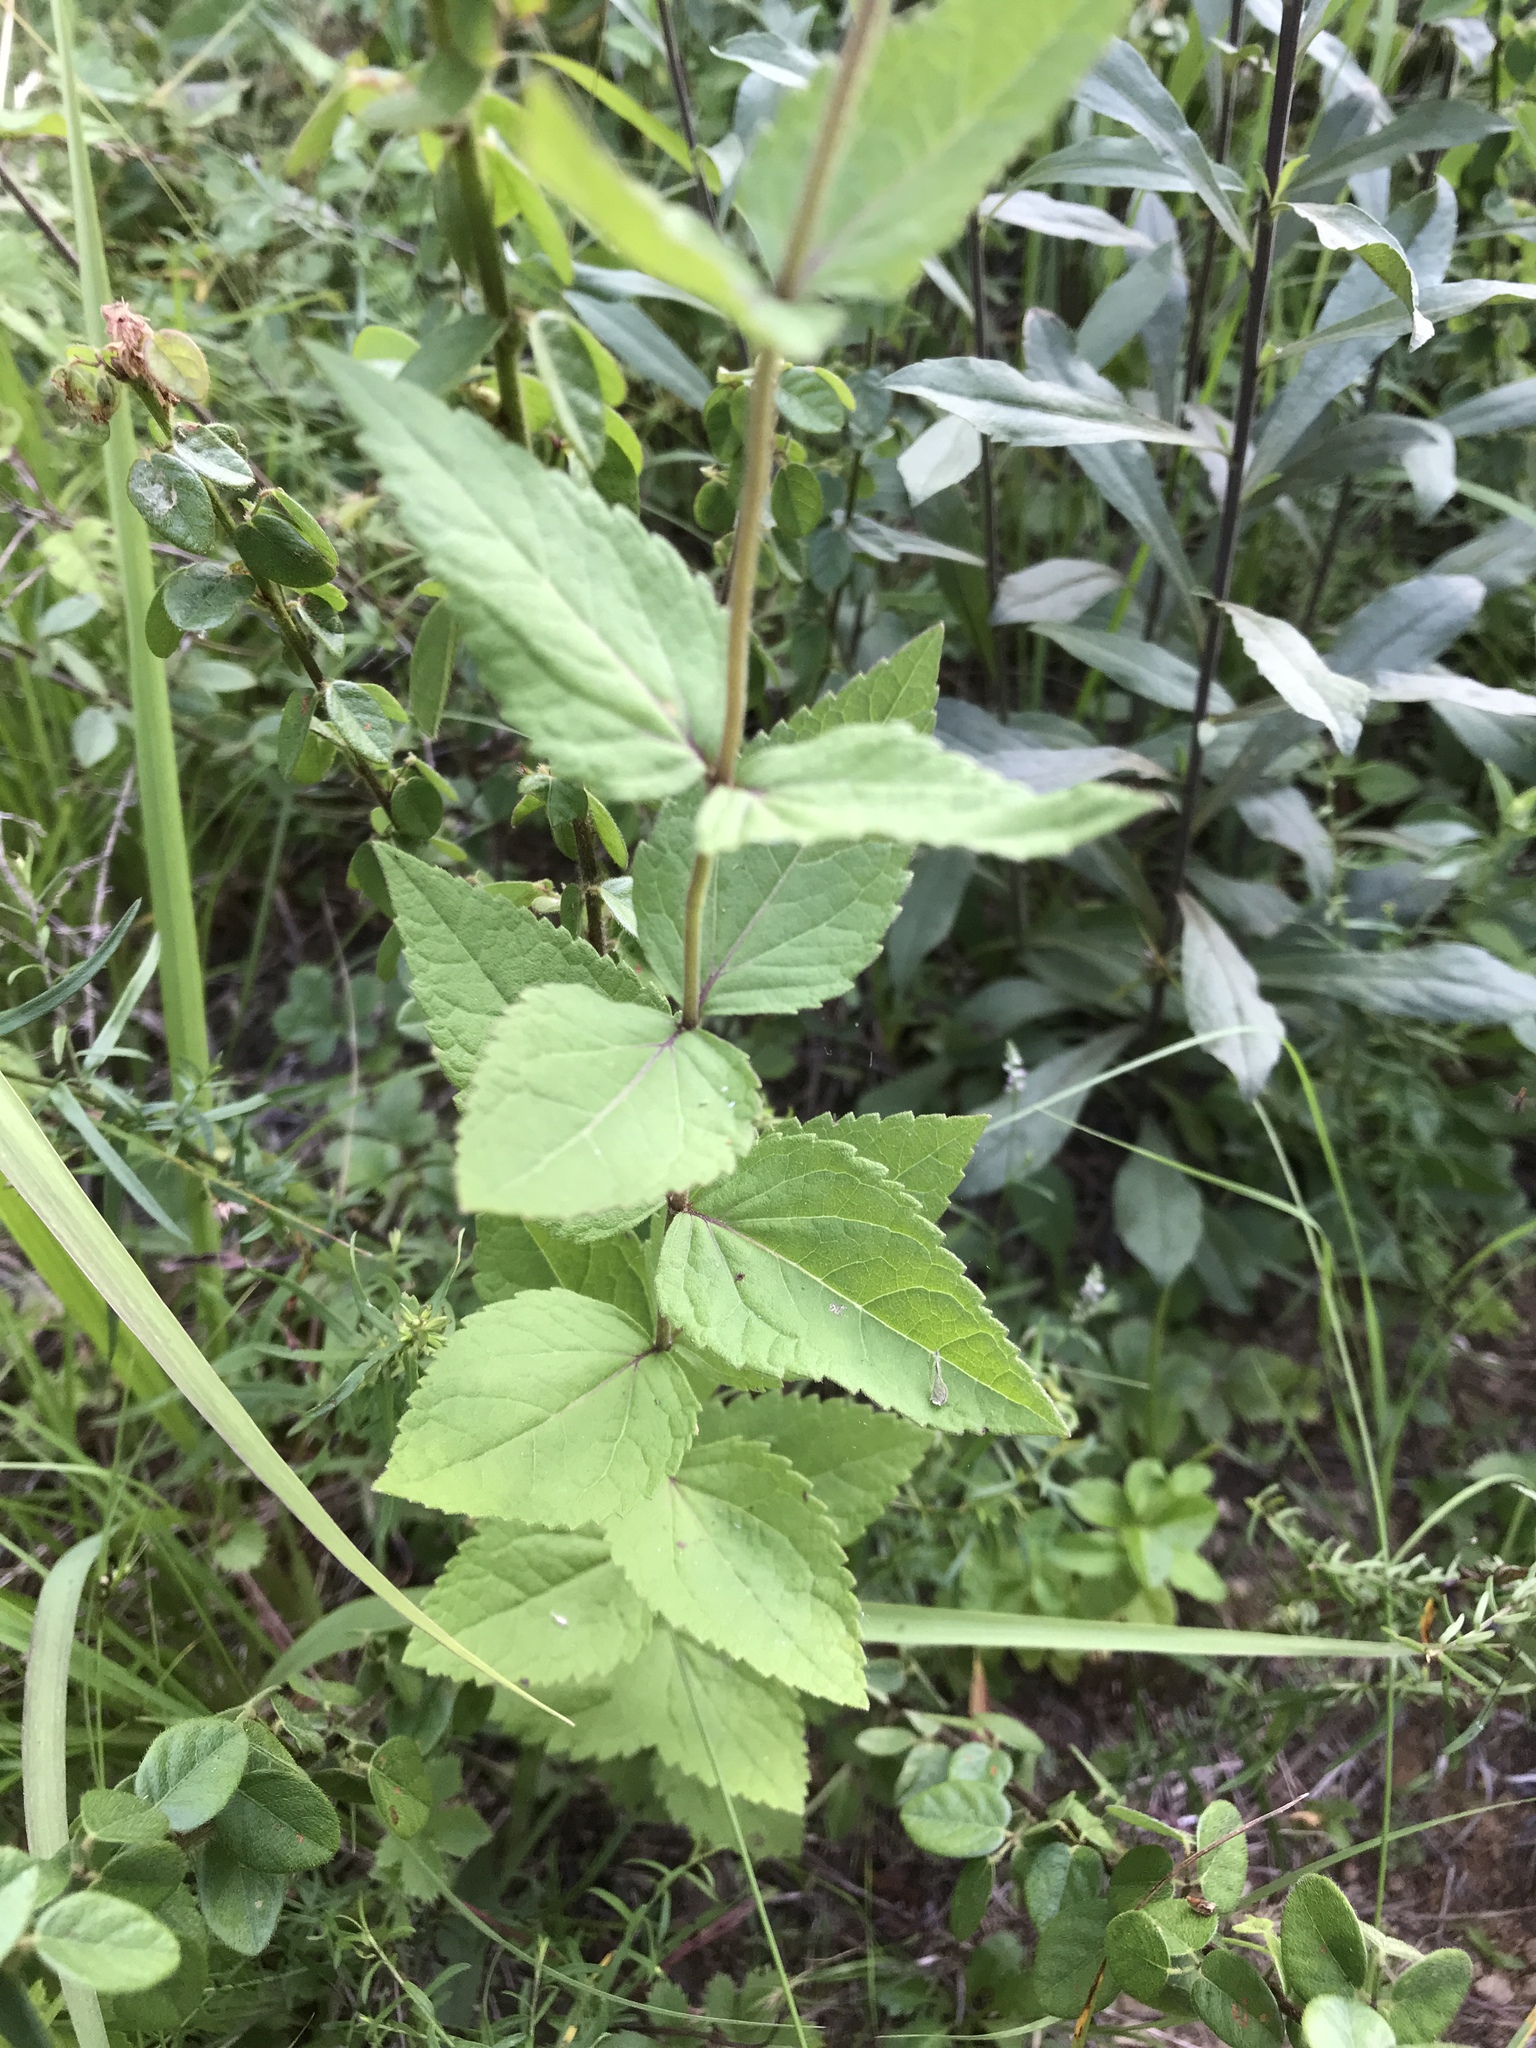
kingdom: Plantae
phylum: Tracheophyta
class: Magnoliopsida
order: Asterales
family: Asteraceae
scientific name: Asteraceae
